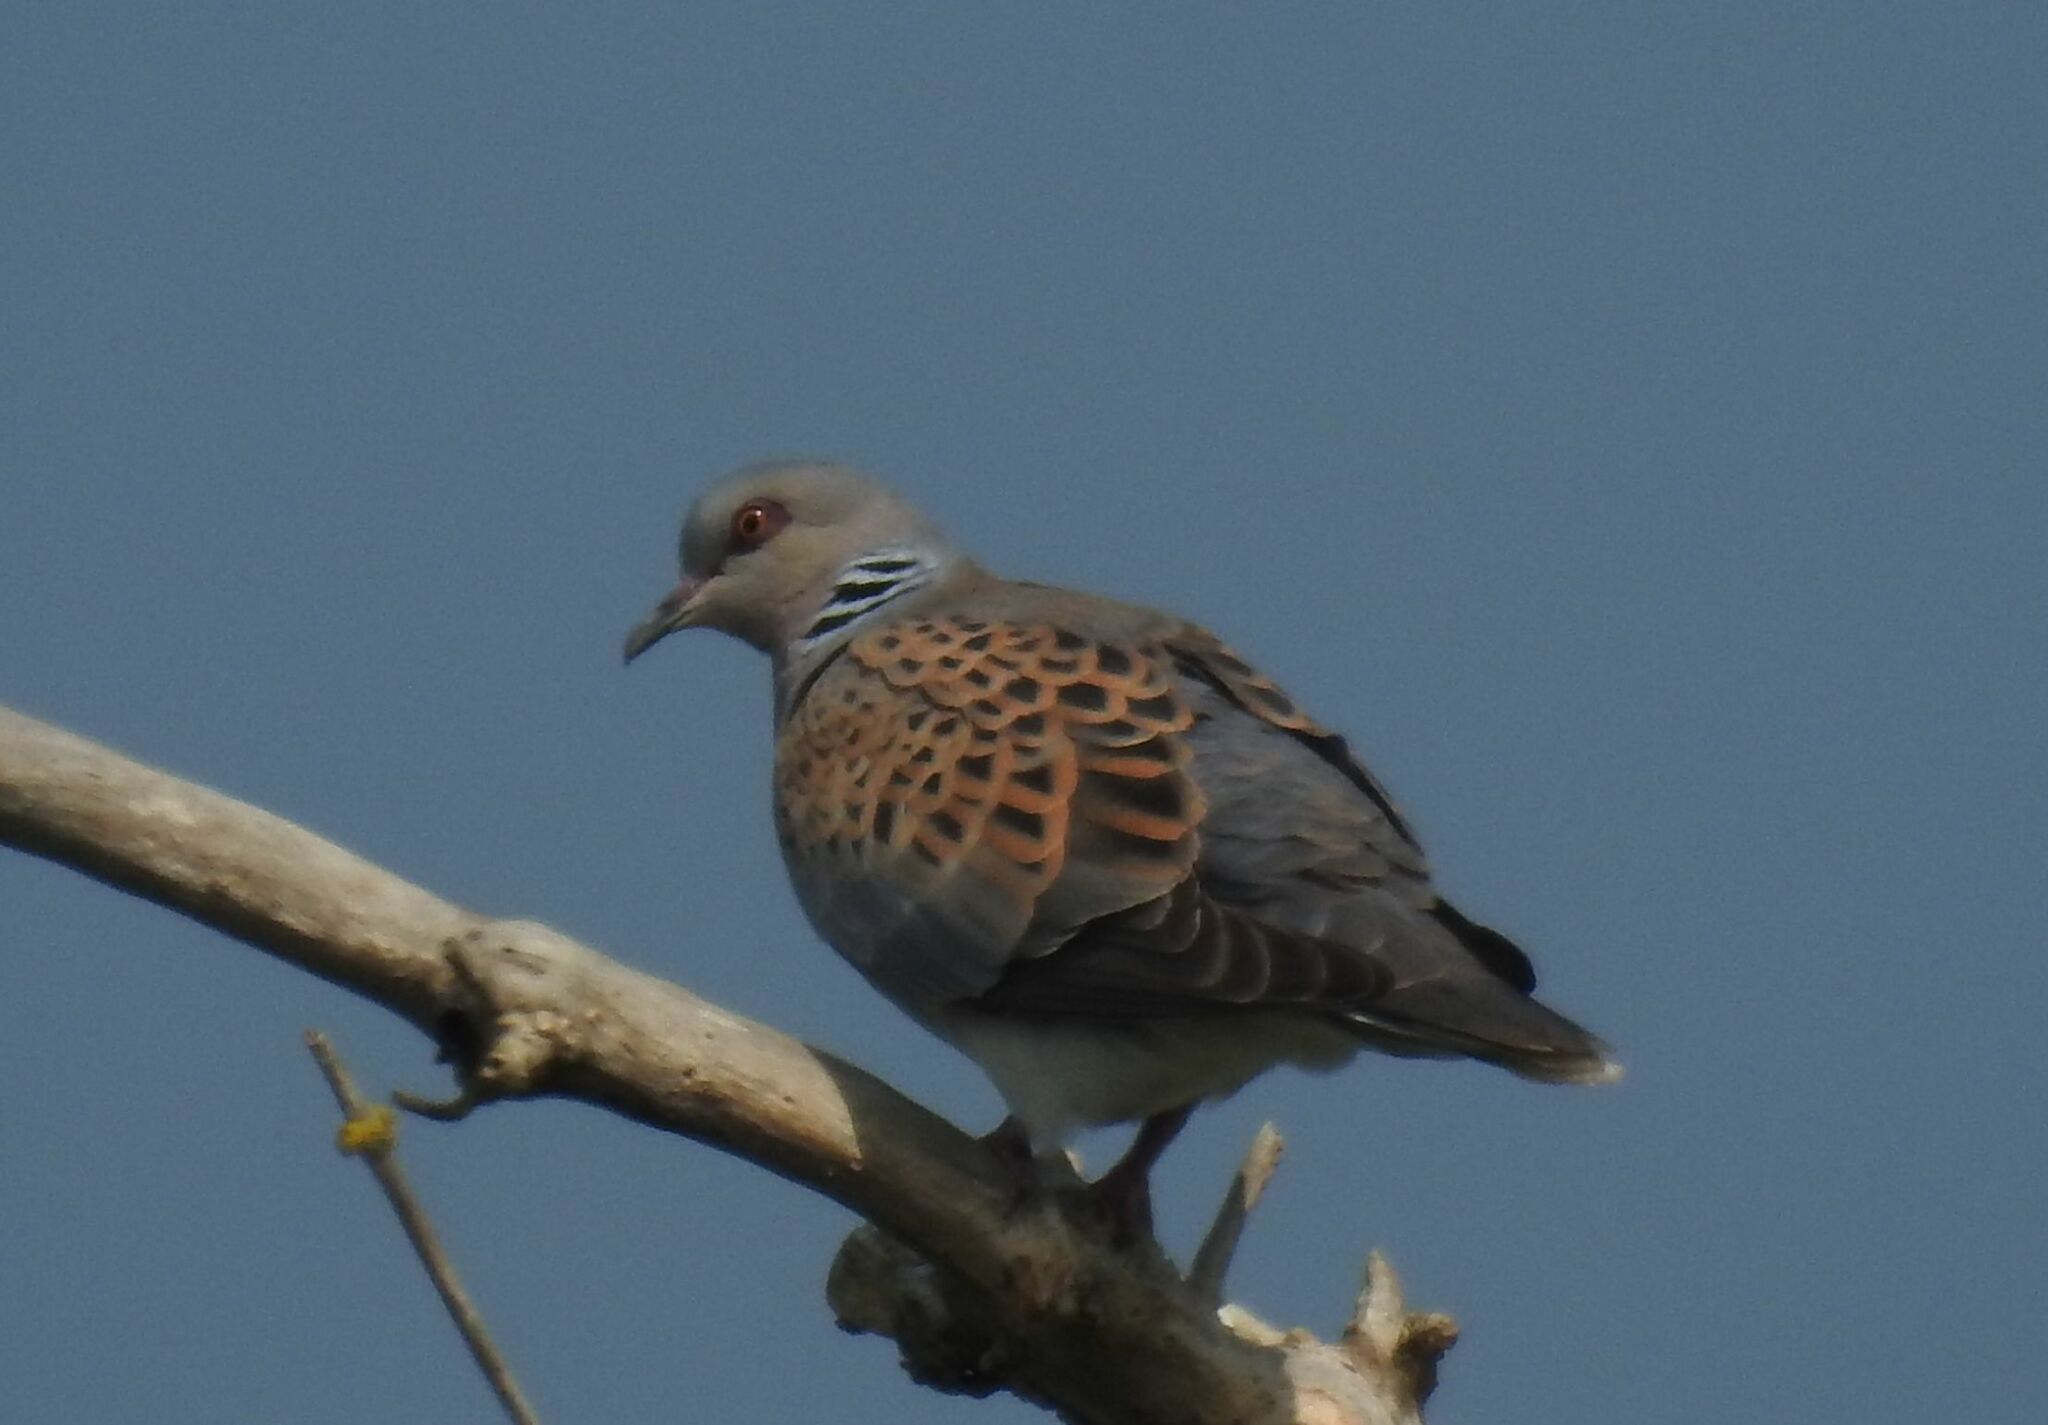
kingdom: Animalia
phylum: Chordata
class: Aves
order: Columbiformes
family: Columbidae
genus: Streptopelia
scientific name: Streptopelia turtur
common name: European turtle dove
